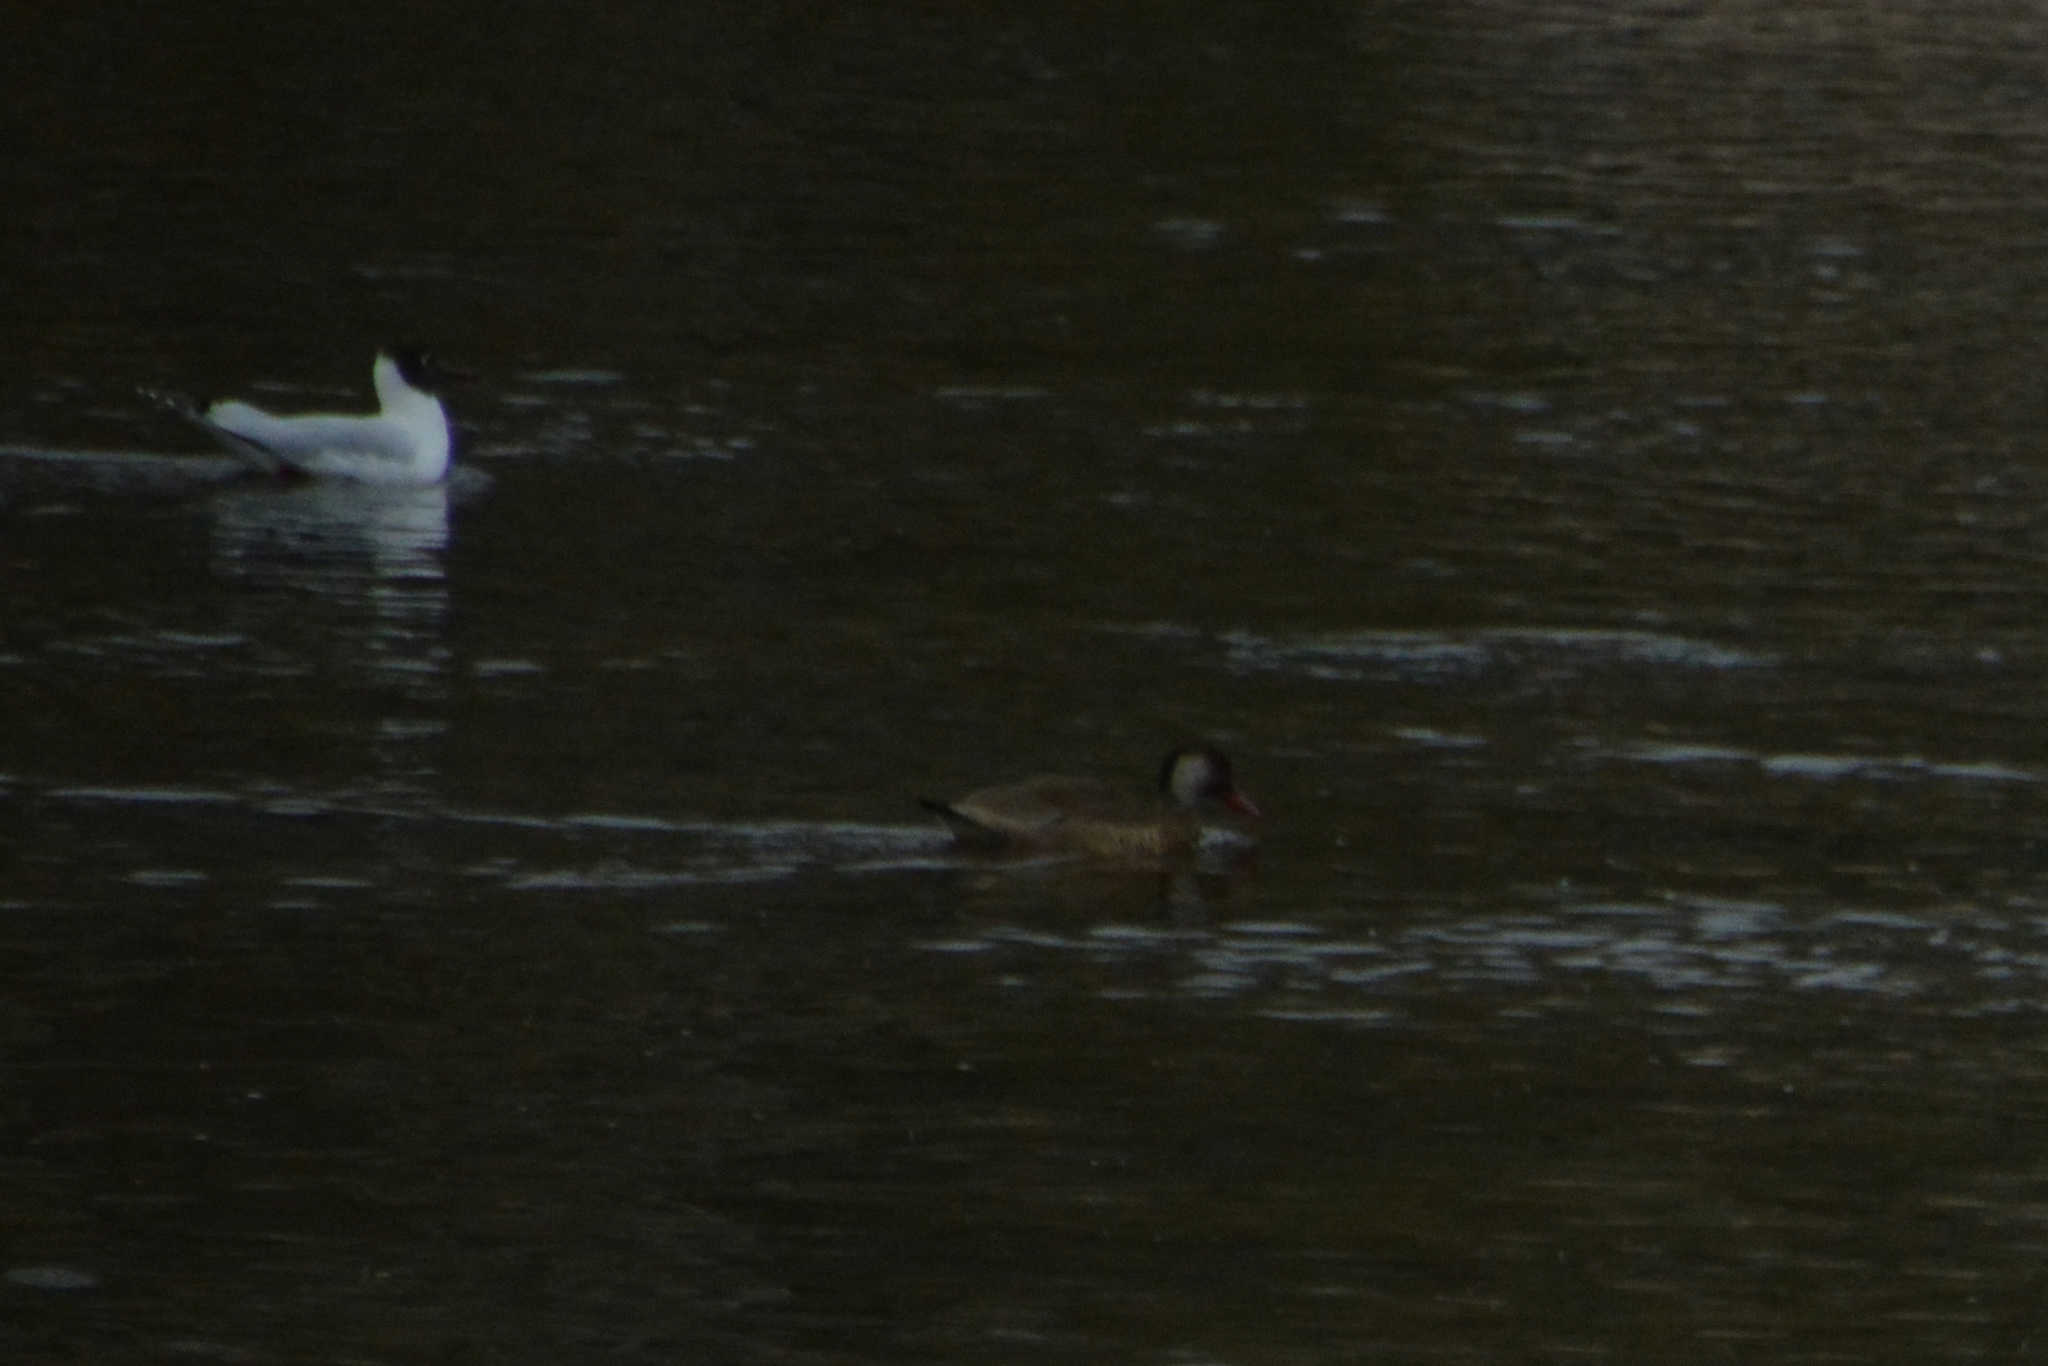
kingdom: Animalia
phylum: Chordata
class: Aves
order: Anseriformes
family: Anatidae
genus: Amazonetta
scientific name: Amazonetta brasiliensis
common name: Brazilian teal
